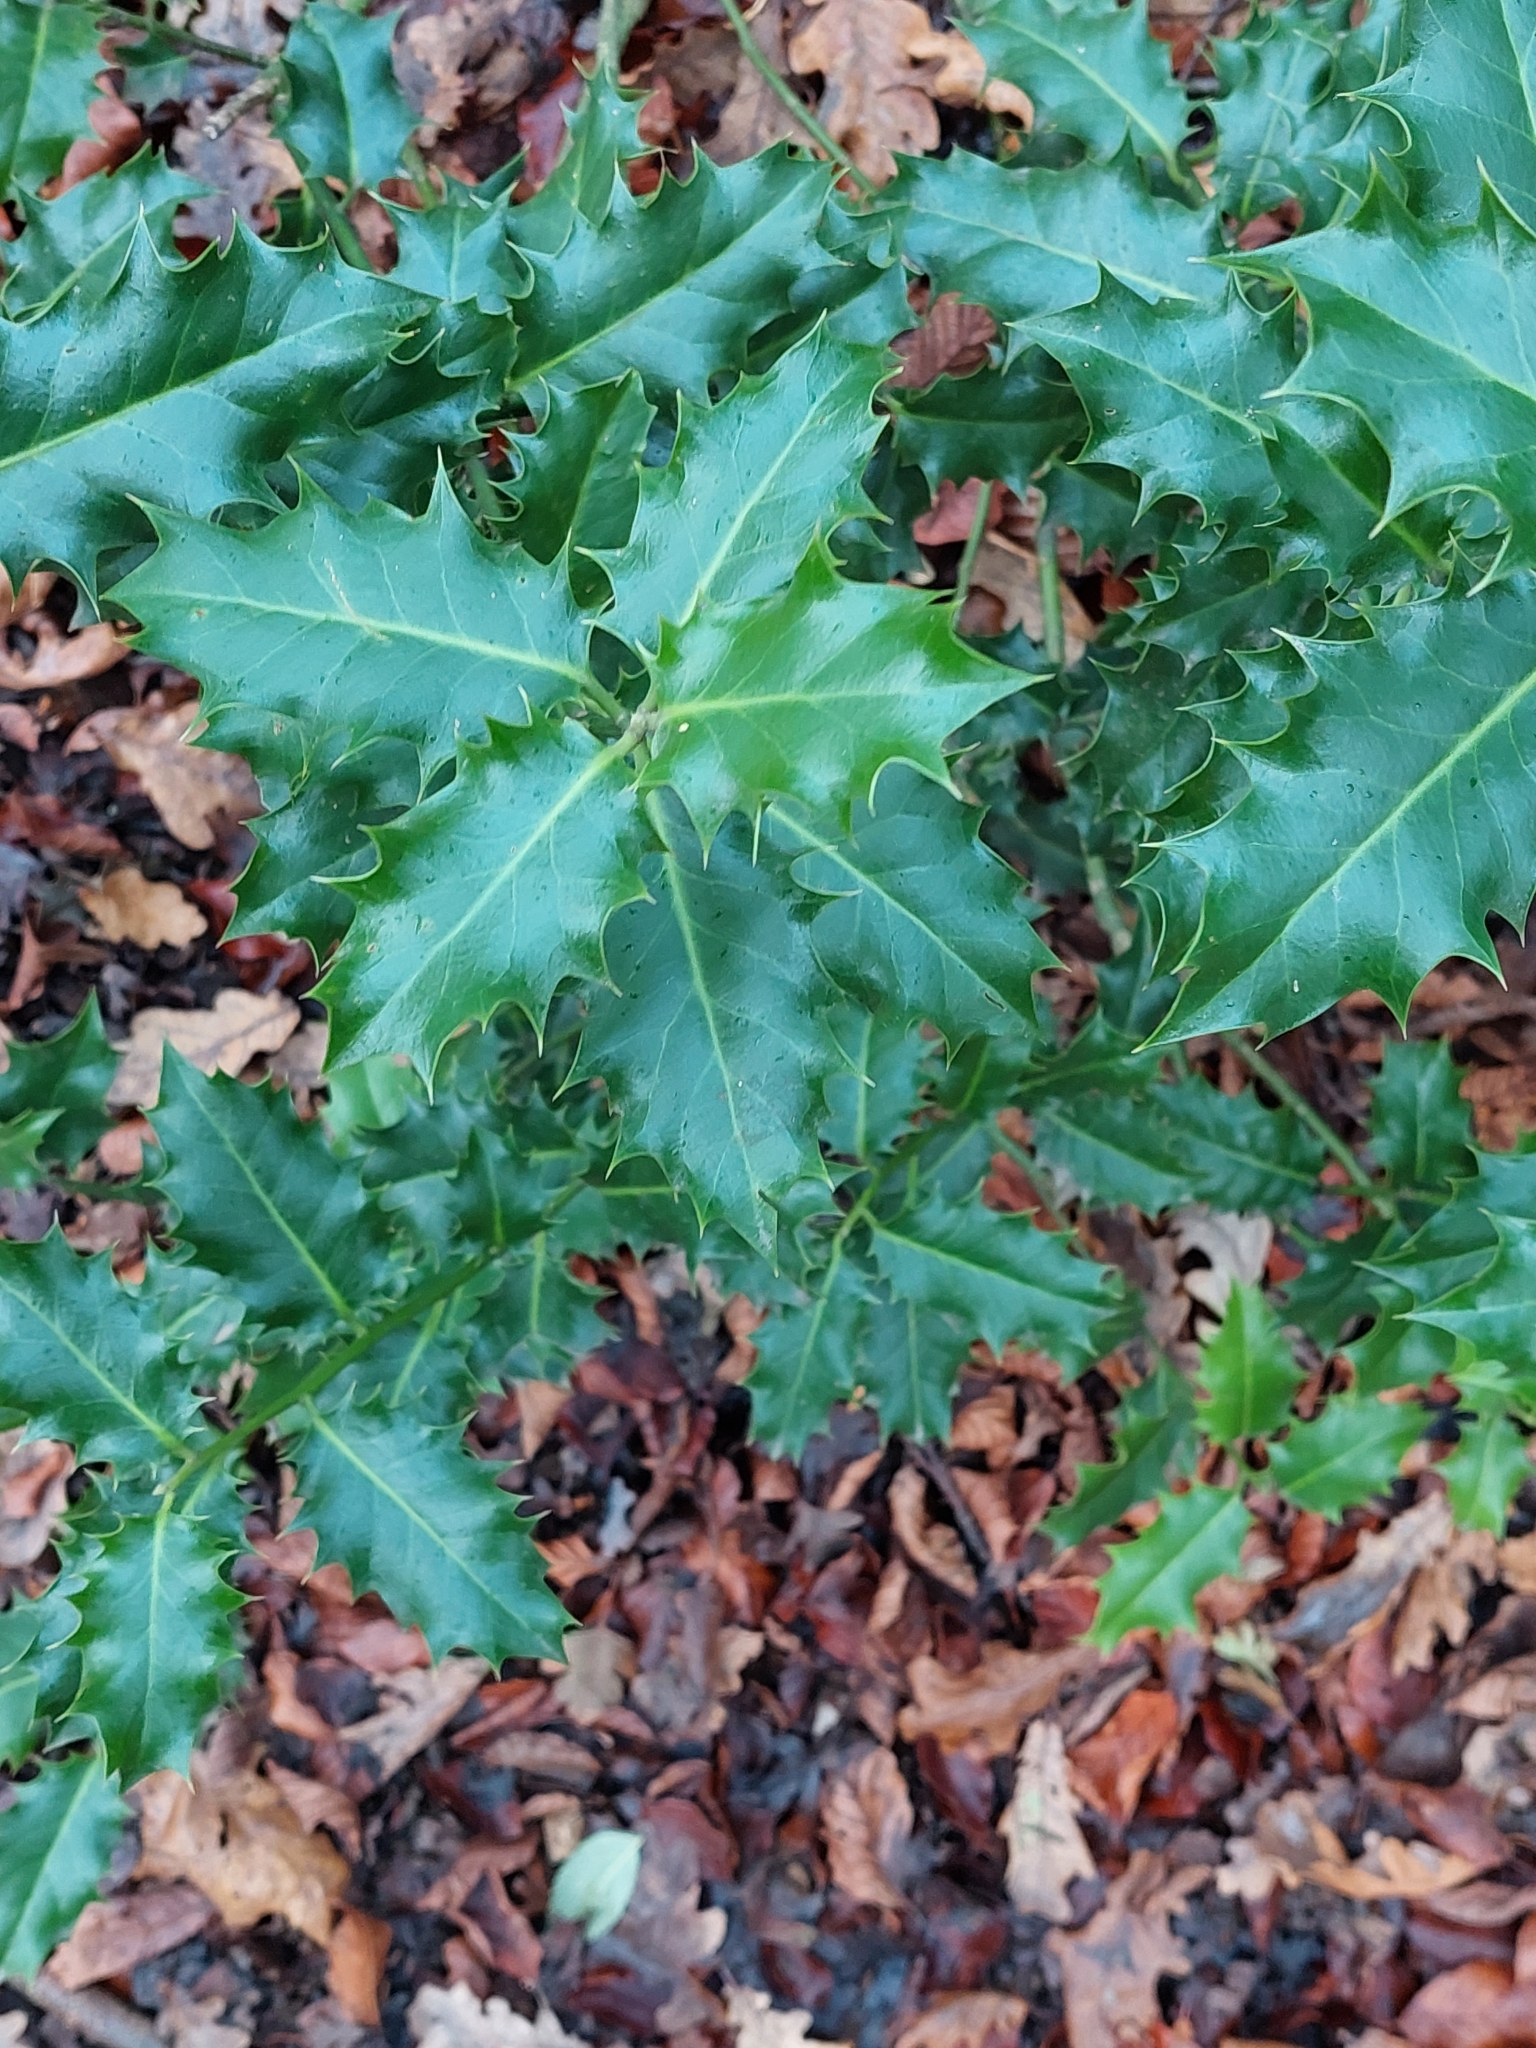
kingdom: Plantae
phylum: Tracheophyta
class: Magnoliopsida
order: Aquifoliales
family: Aquifoliaceae
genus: Ilex
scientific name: Ilex aquifolium
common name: English holly
